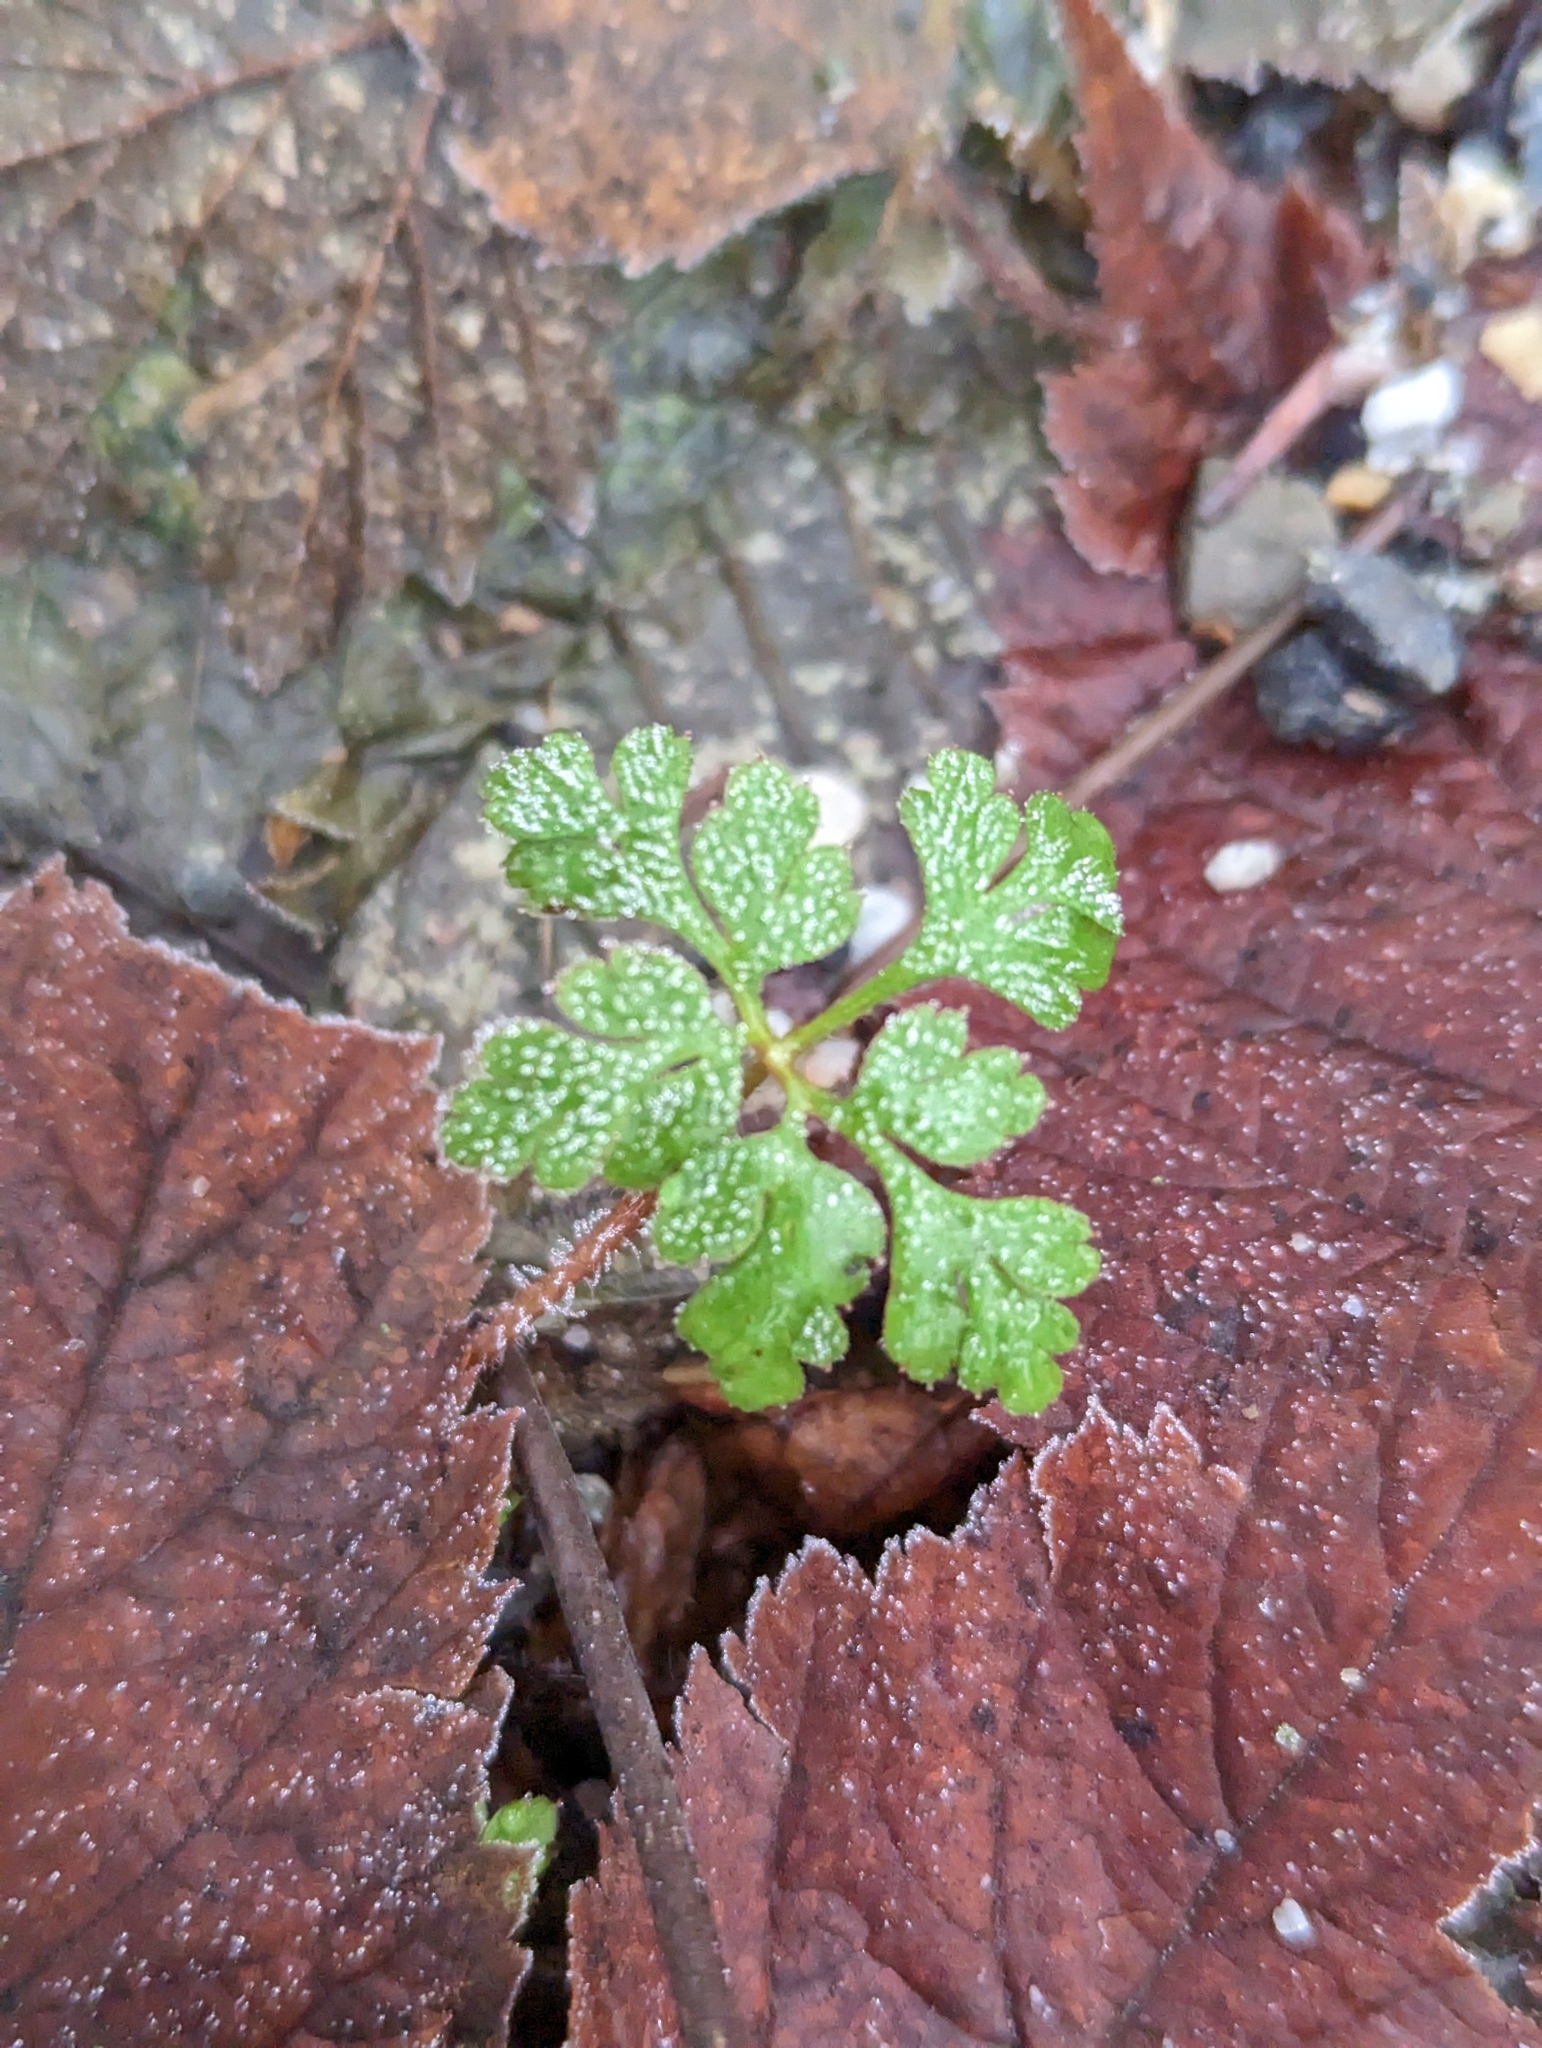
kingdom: Plantae
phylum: Tracheophyta
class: Magnoliopsida
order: Geraniales
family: Geraniaceae
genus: Geranium
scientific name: Geranium robertianum
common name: Herb-robert
